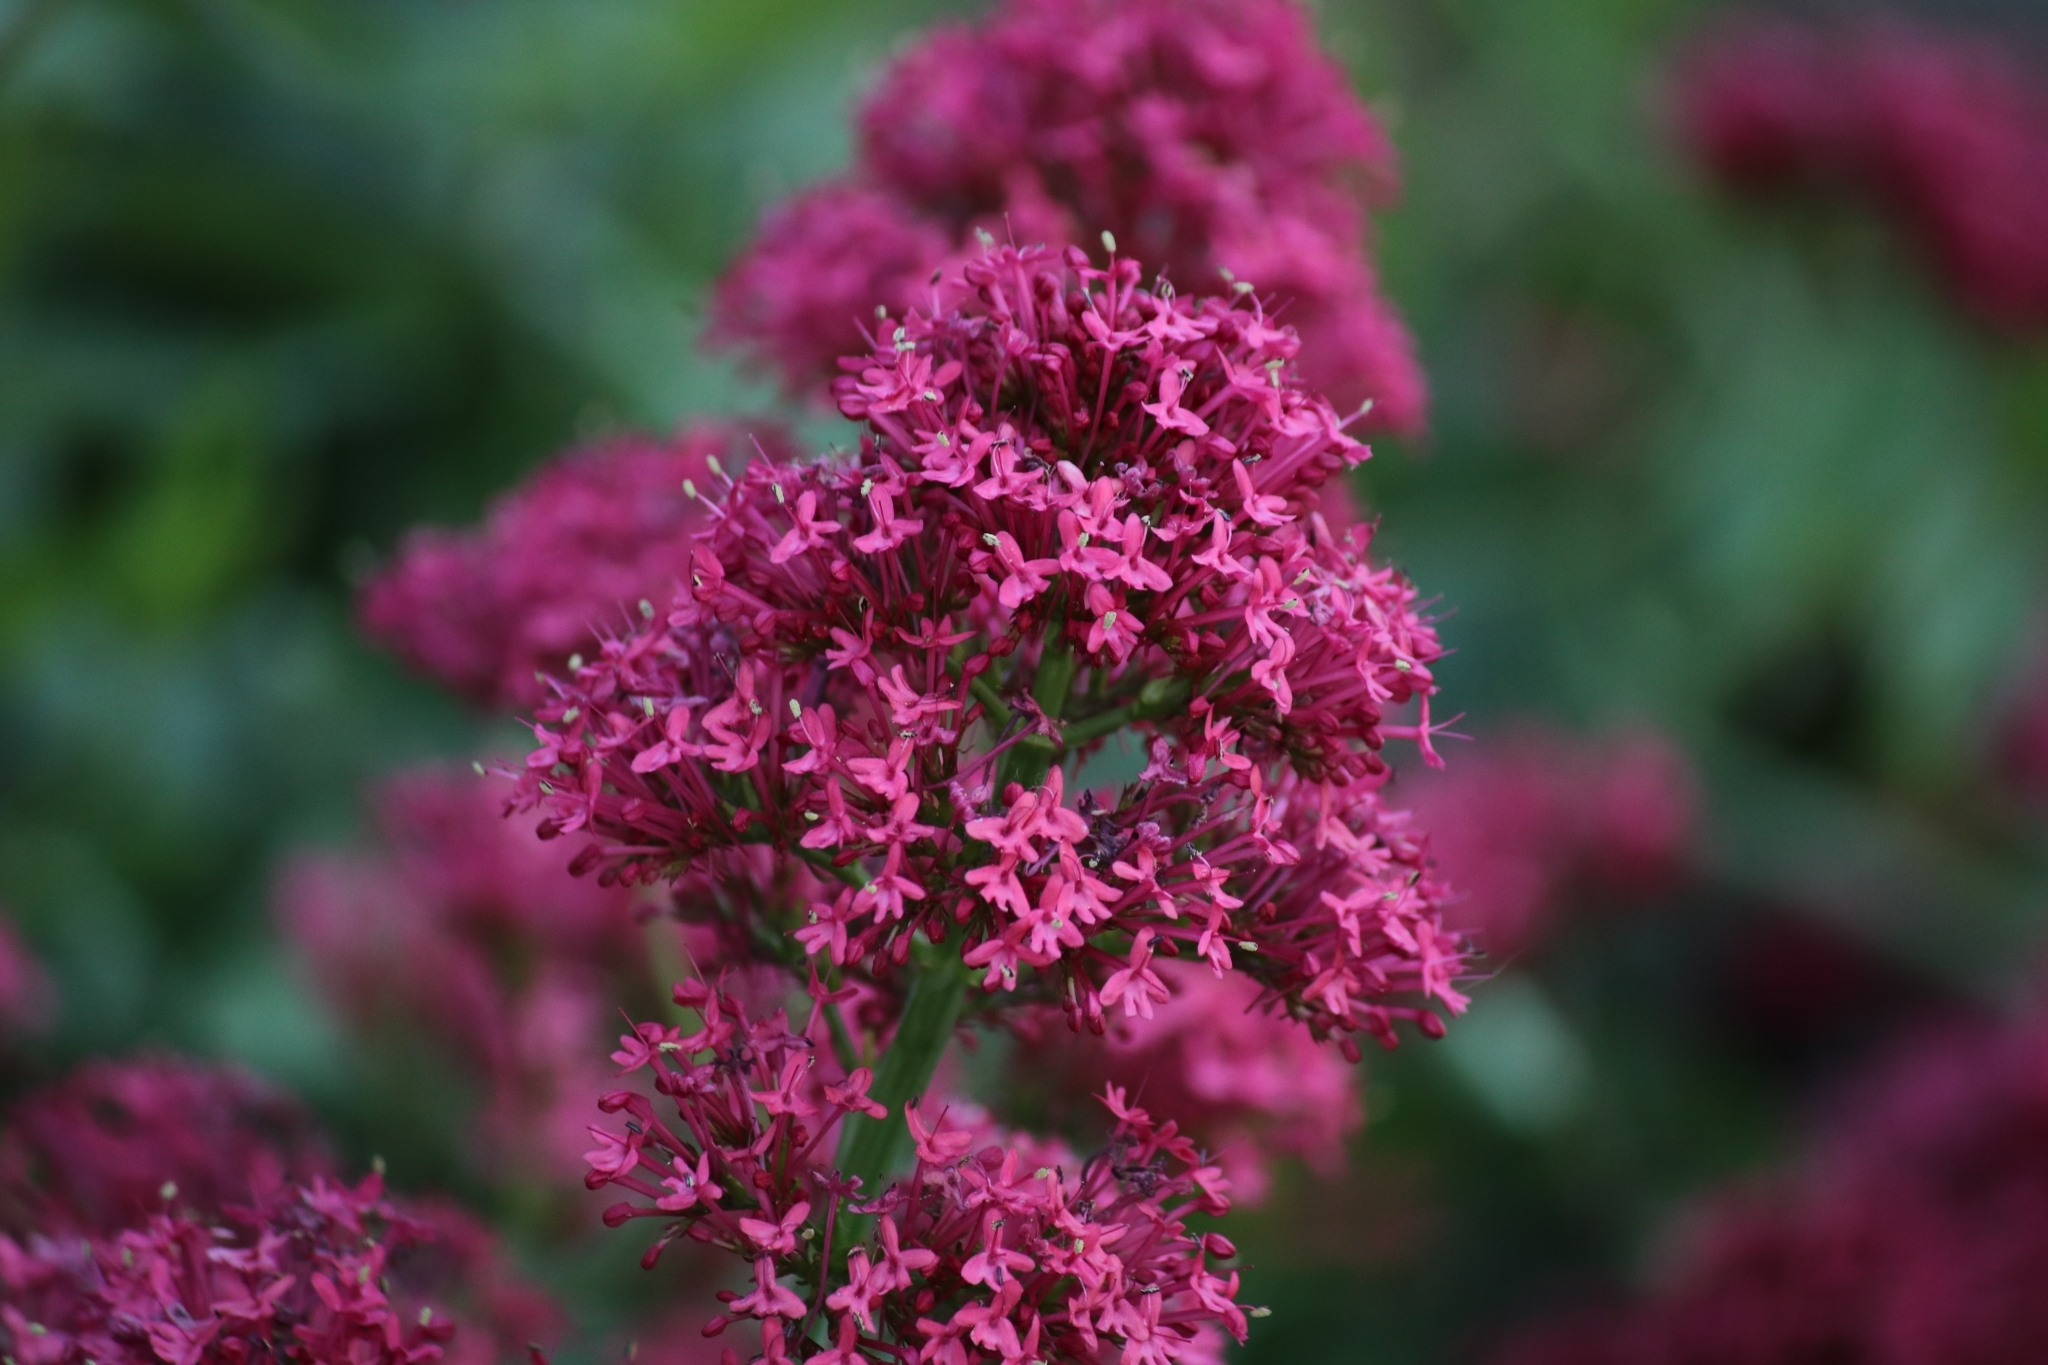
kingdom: Plantae
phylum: Tracheophyta
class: Magnoliopsida
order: Dipsacales
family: Caprifoliaceae
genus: Centranthus
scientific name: Centranthus ruber
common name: Red valerian
